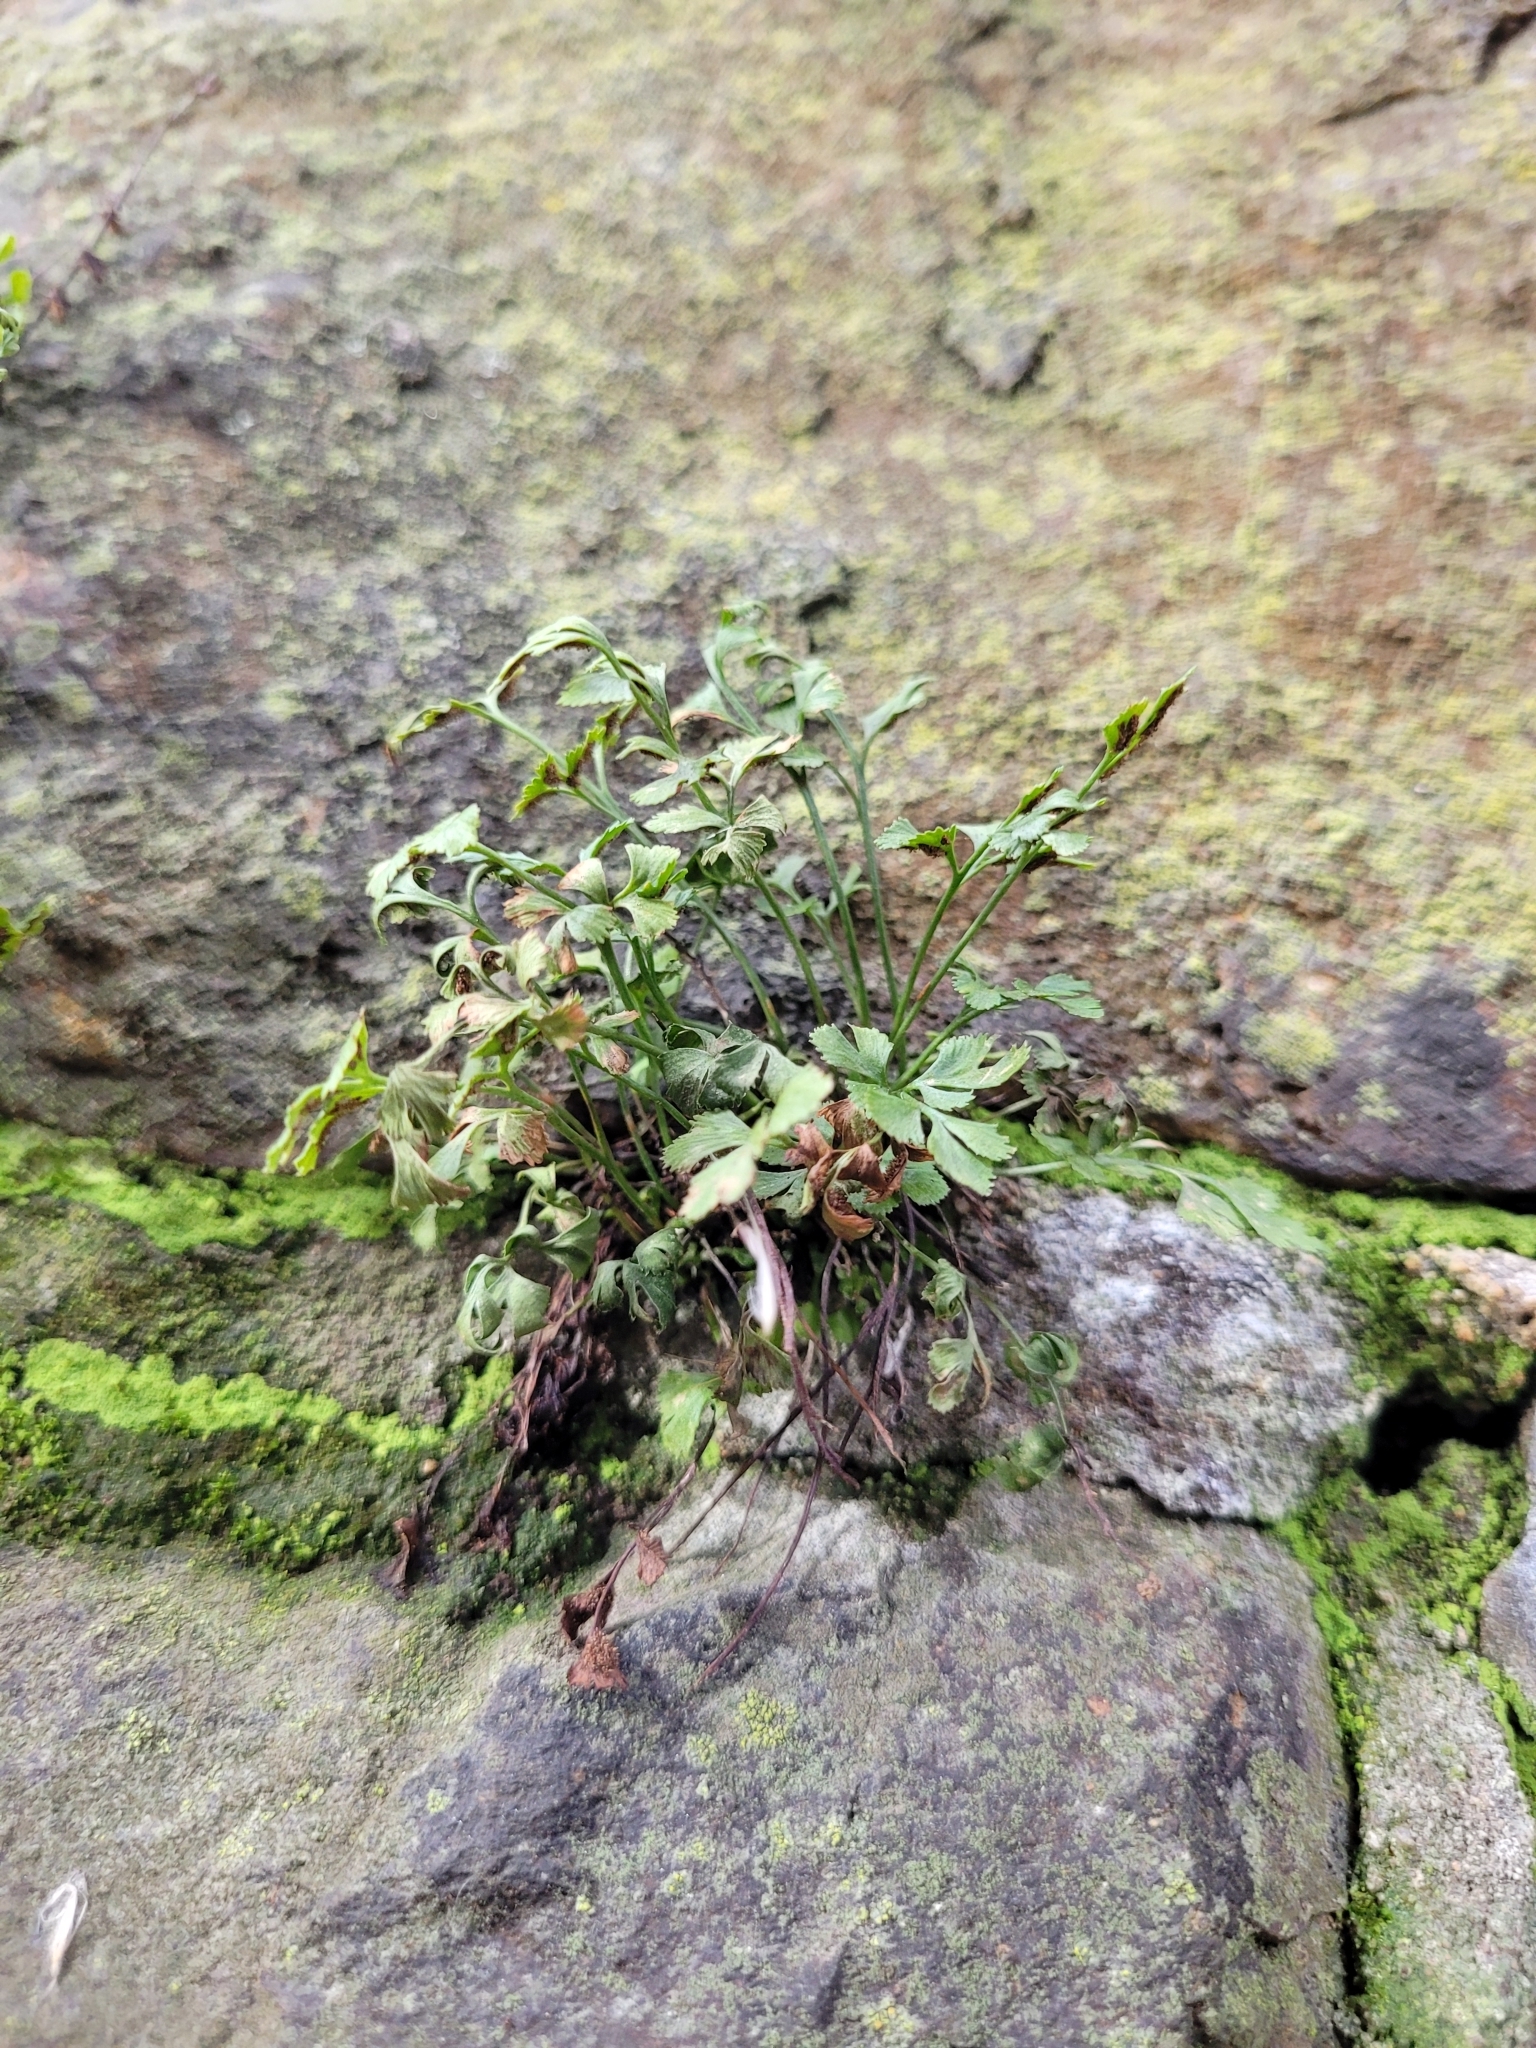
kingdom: Plantae
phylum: Tracheophyta
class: Polypodiopsida
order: Polypodiales
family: Aspleniaceae
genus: Asplenium
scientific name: Asplenium ruta-muraria
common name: Wall-rue
